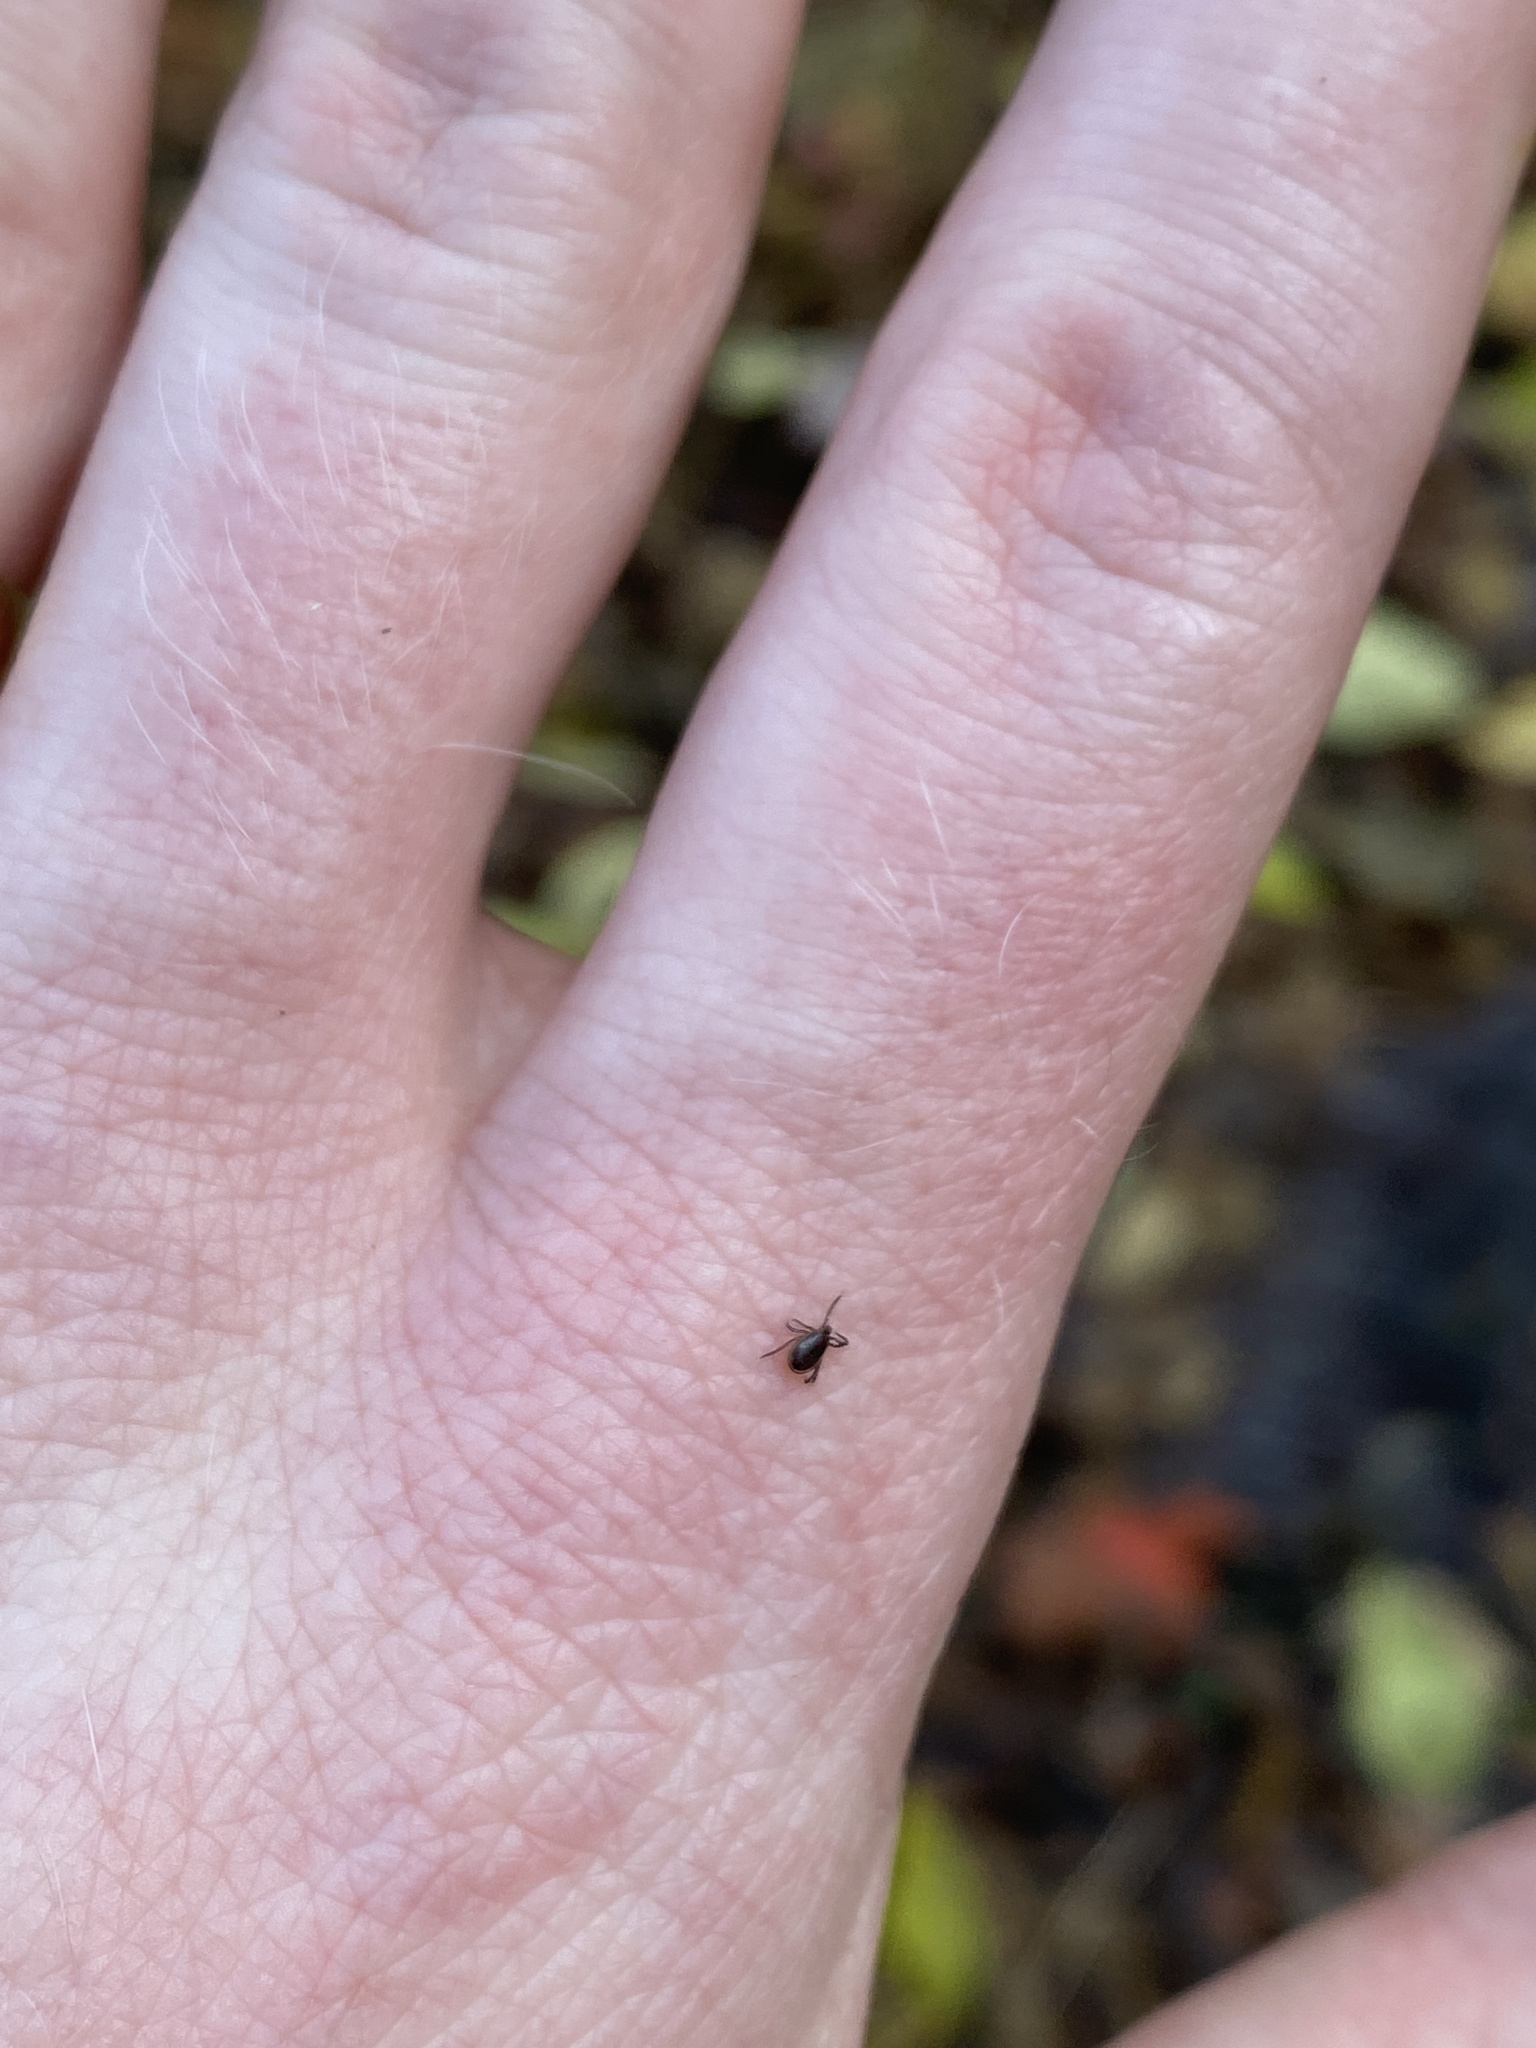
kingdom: Animalia
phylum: Arthropoda
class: Arachnida
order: Ixodida
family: Ixodidae
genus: Ixodes
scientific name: Ixodes scapularis
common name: Black legged tick
